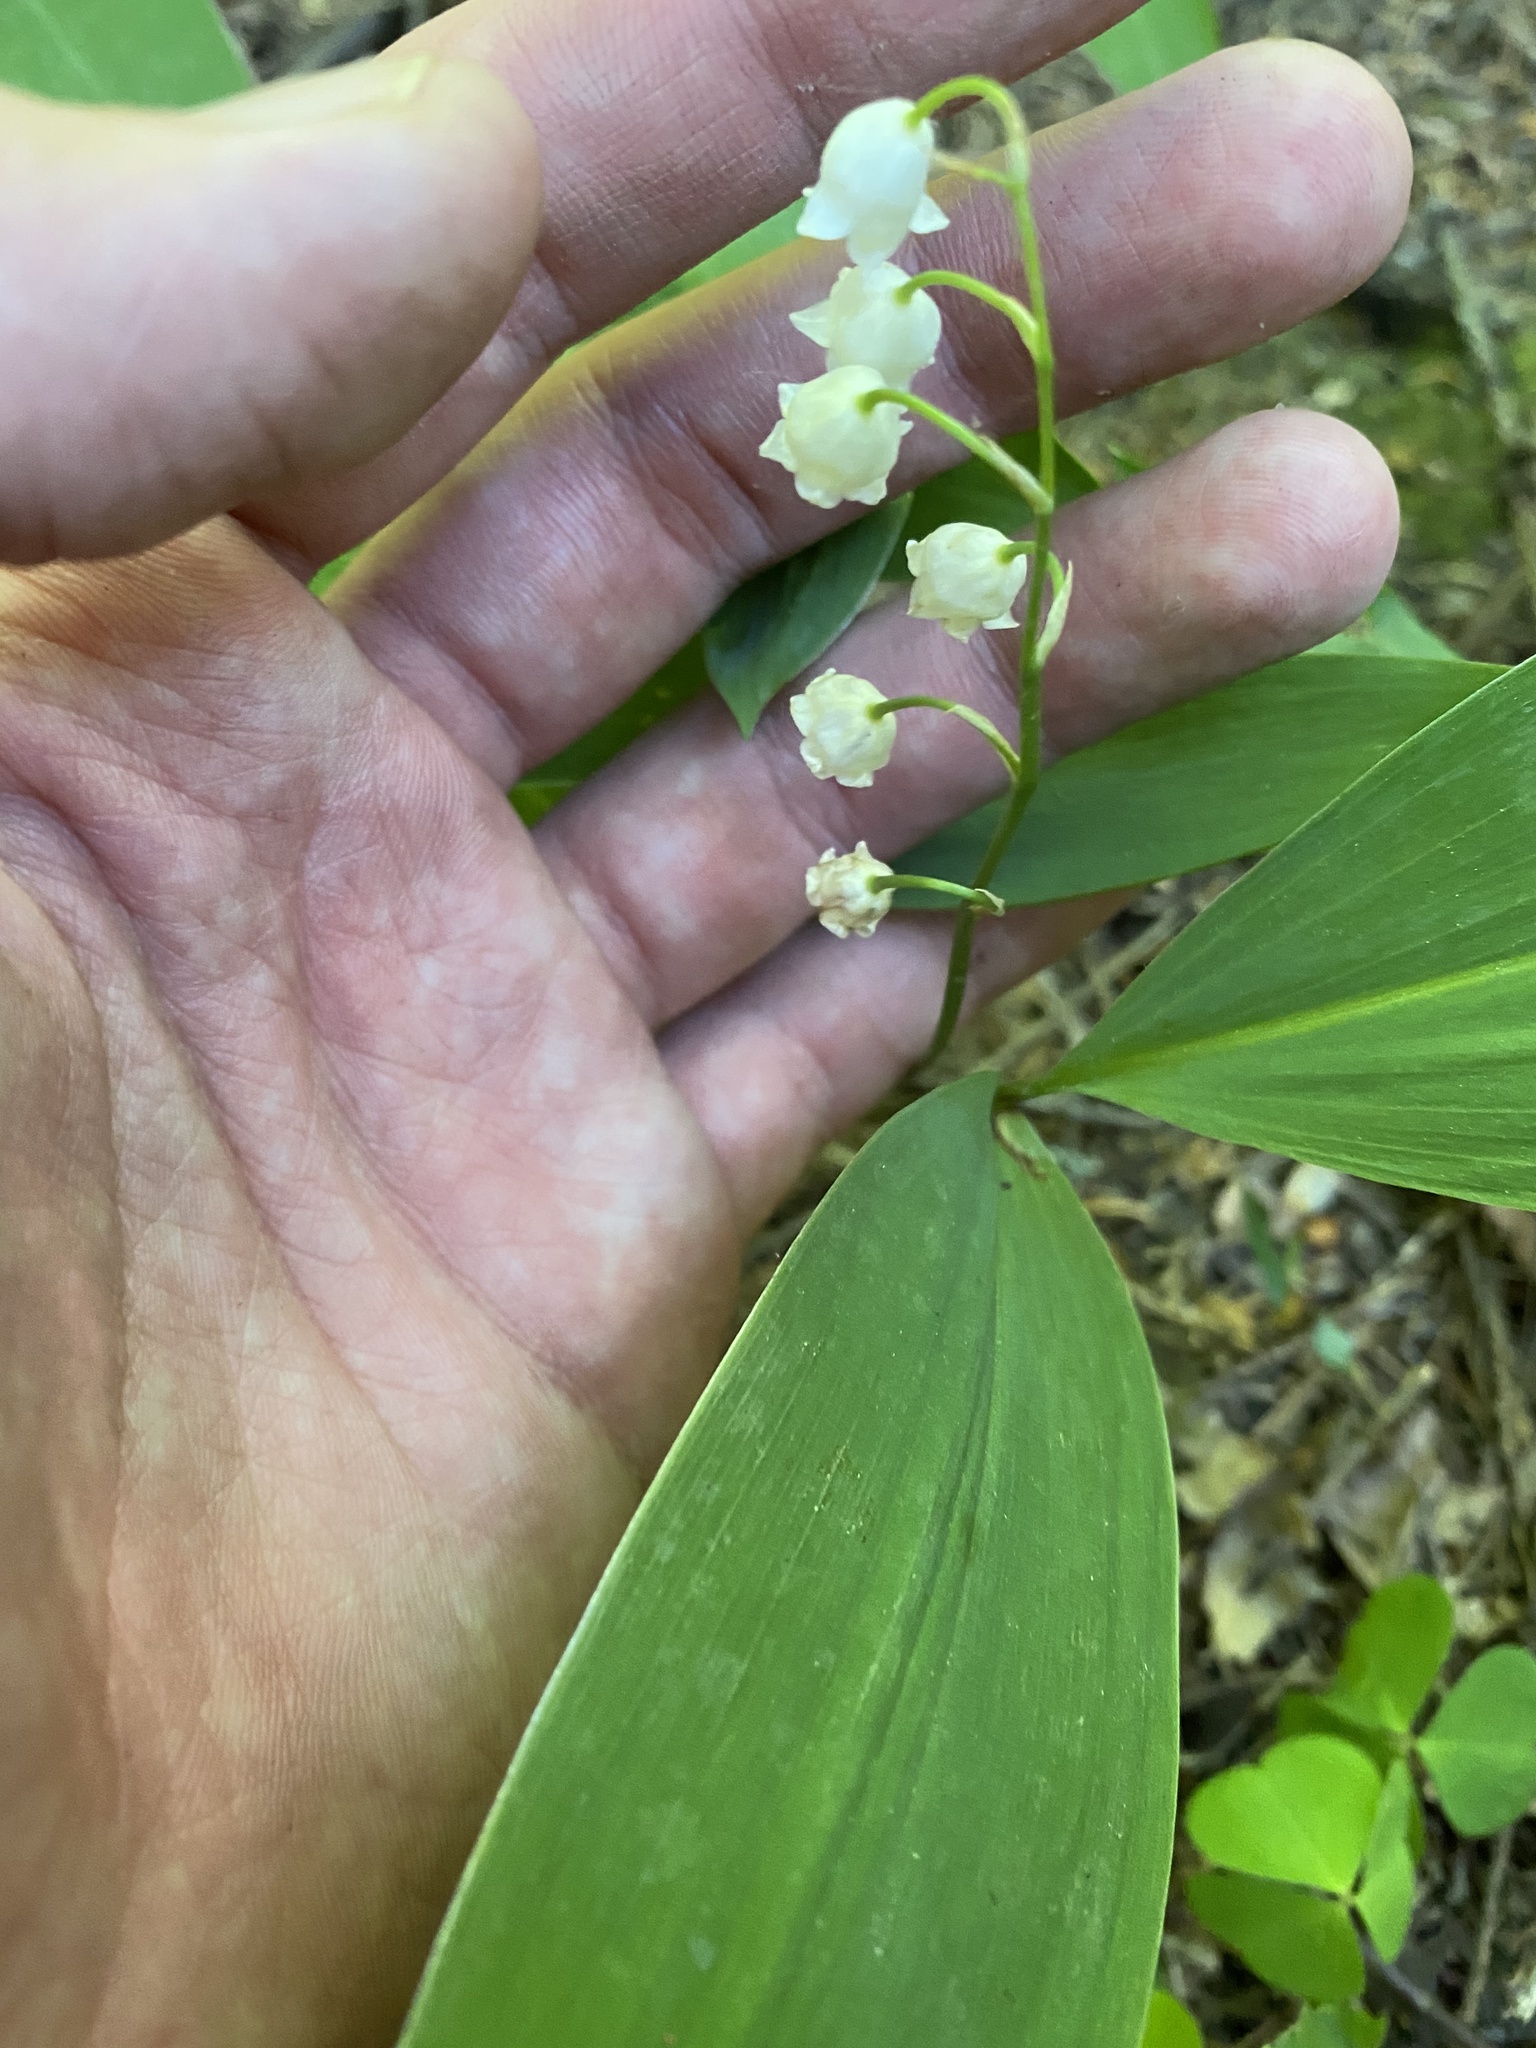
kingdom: Plantae
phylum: Tracheophyta
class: Liliopsida
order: Asparagales
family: Asparagaceae
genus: Convallaria
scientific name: Convallaria majalis
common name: Lily-of-the-valley
